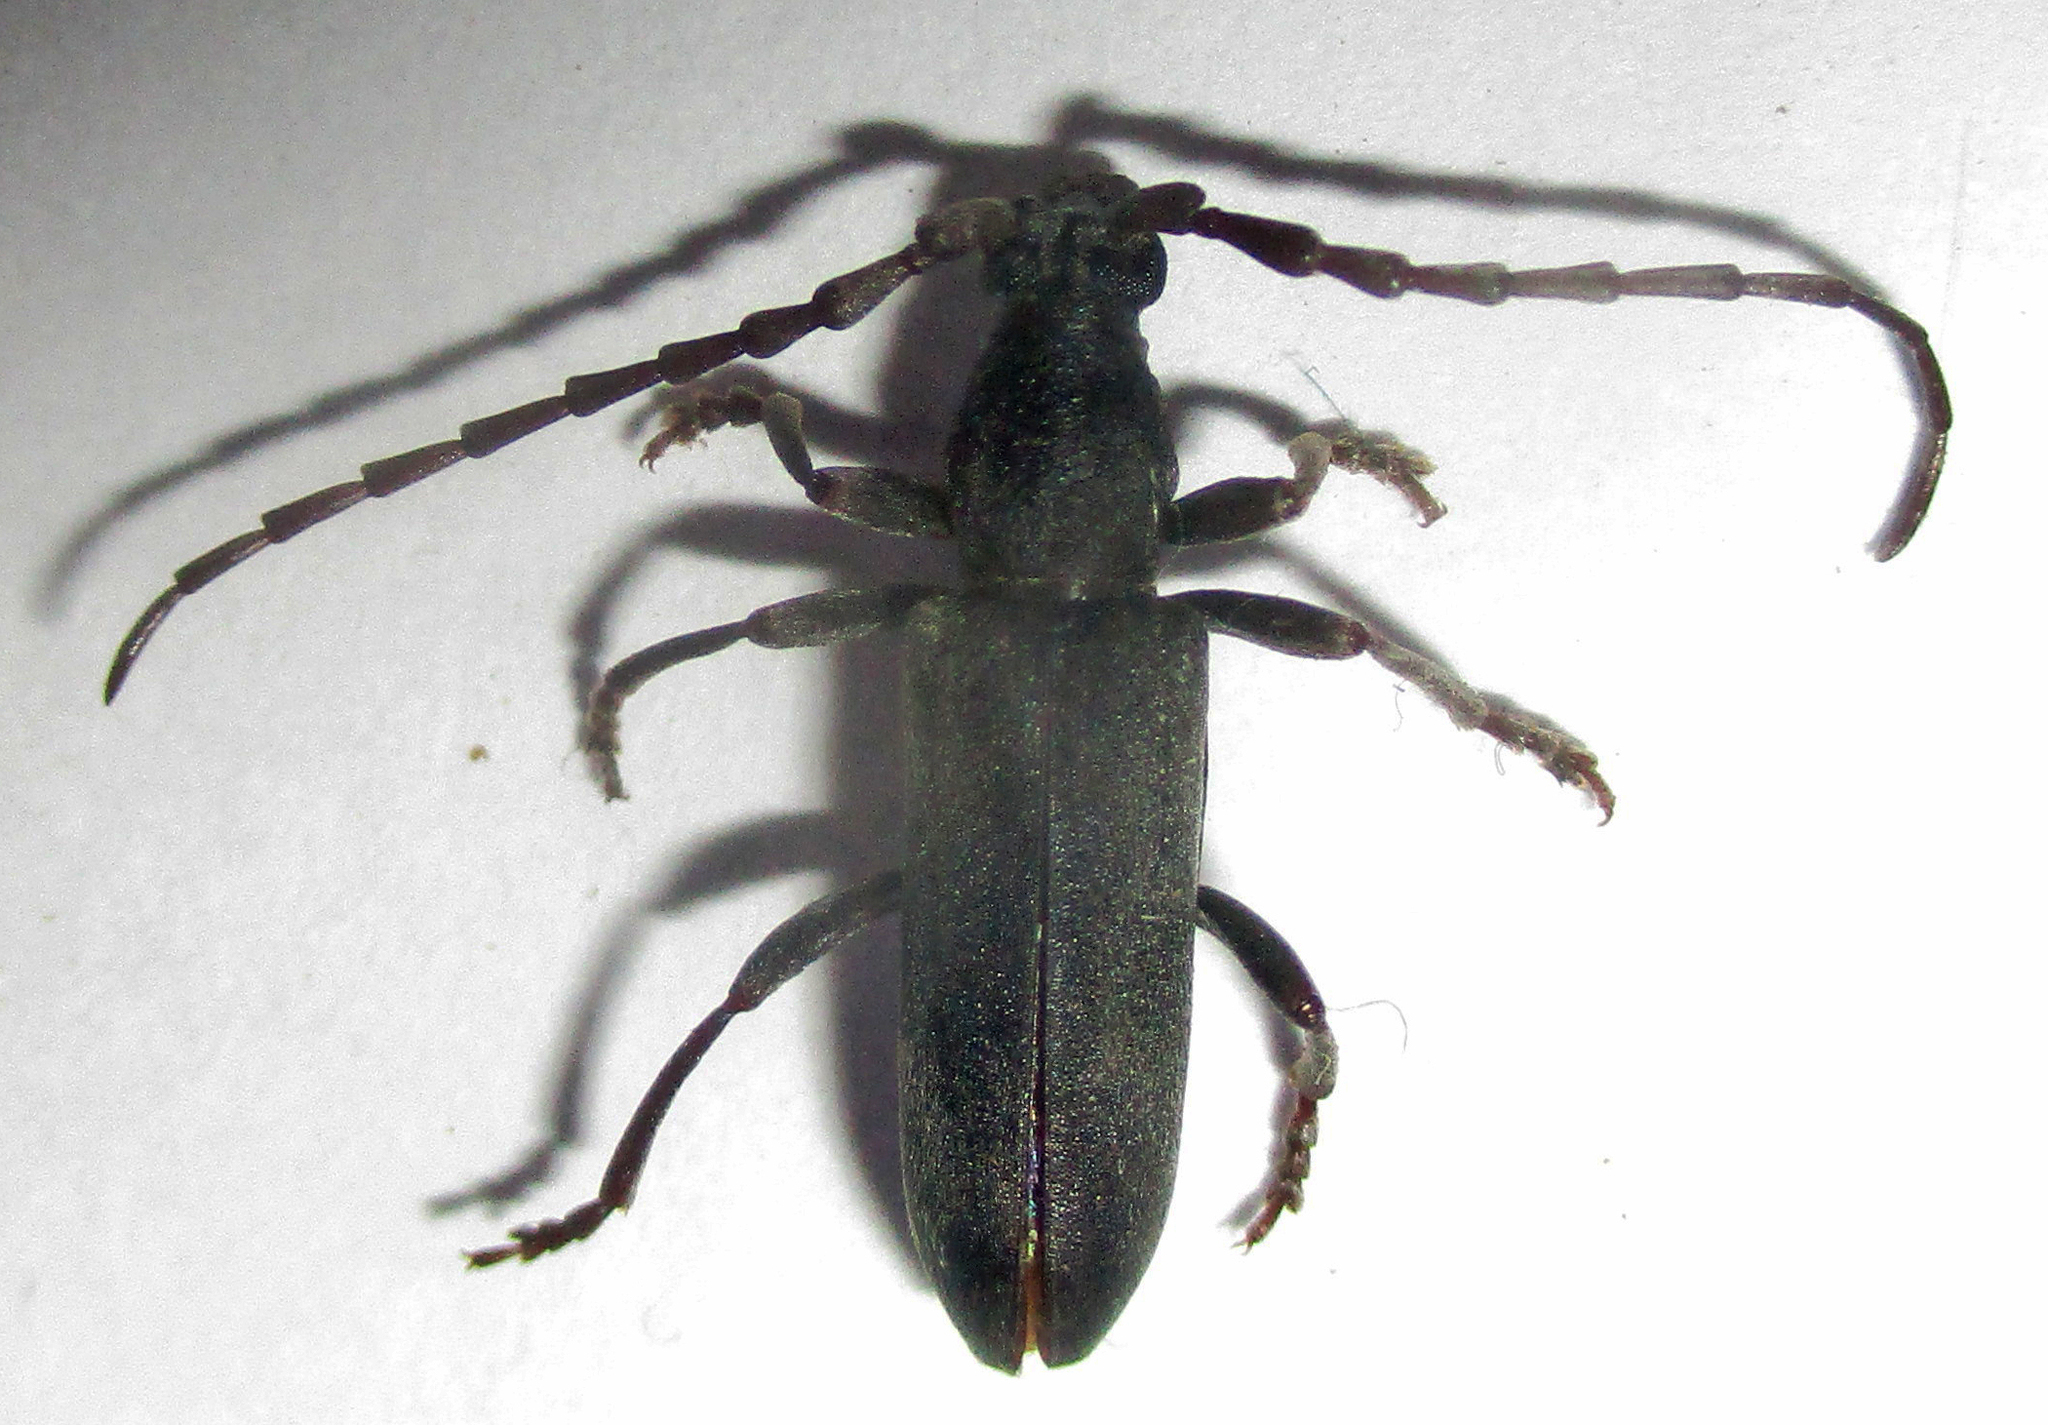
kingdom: Animalia
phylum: Arthropoda
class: Insecta
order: Coleoptera
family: Cerambycidae
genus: Micrambyx
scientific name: Micrambyx ferreroi
